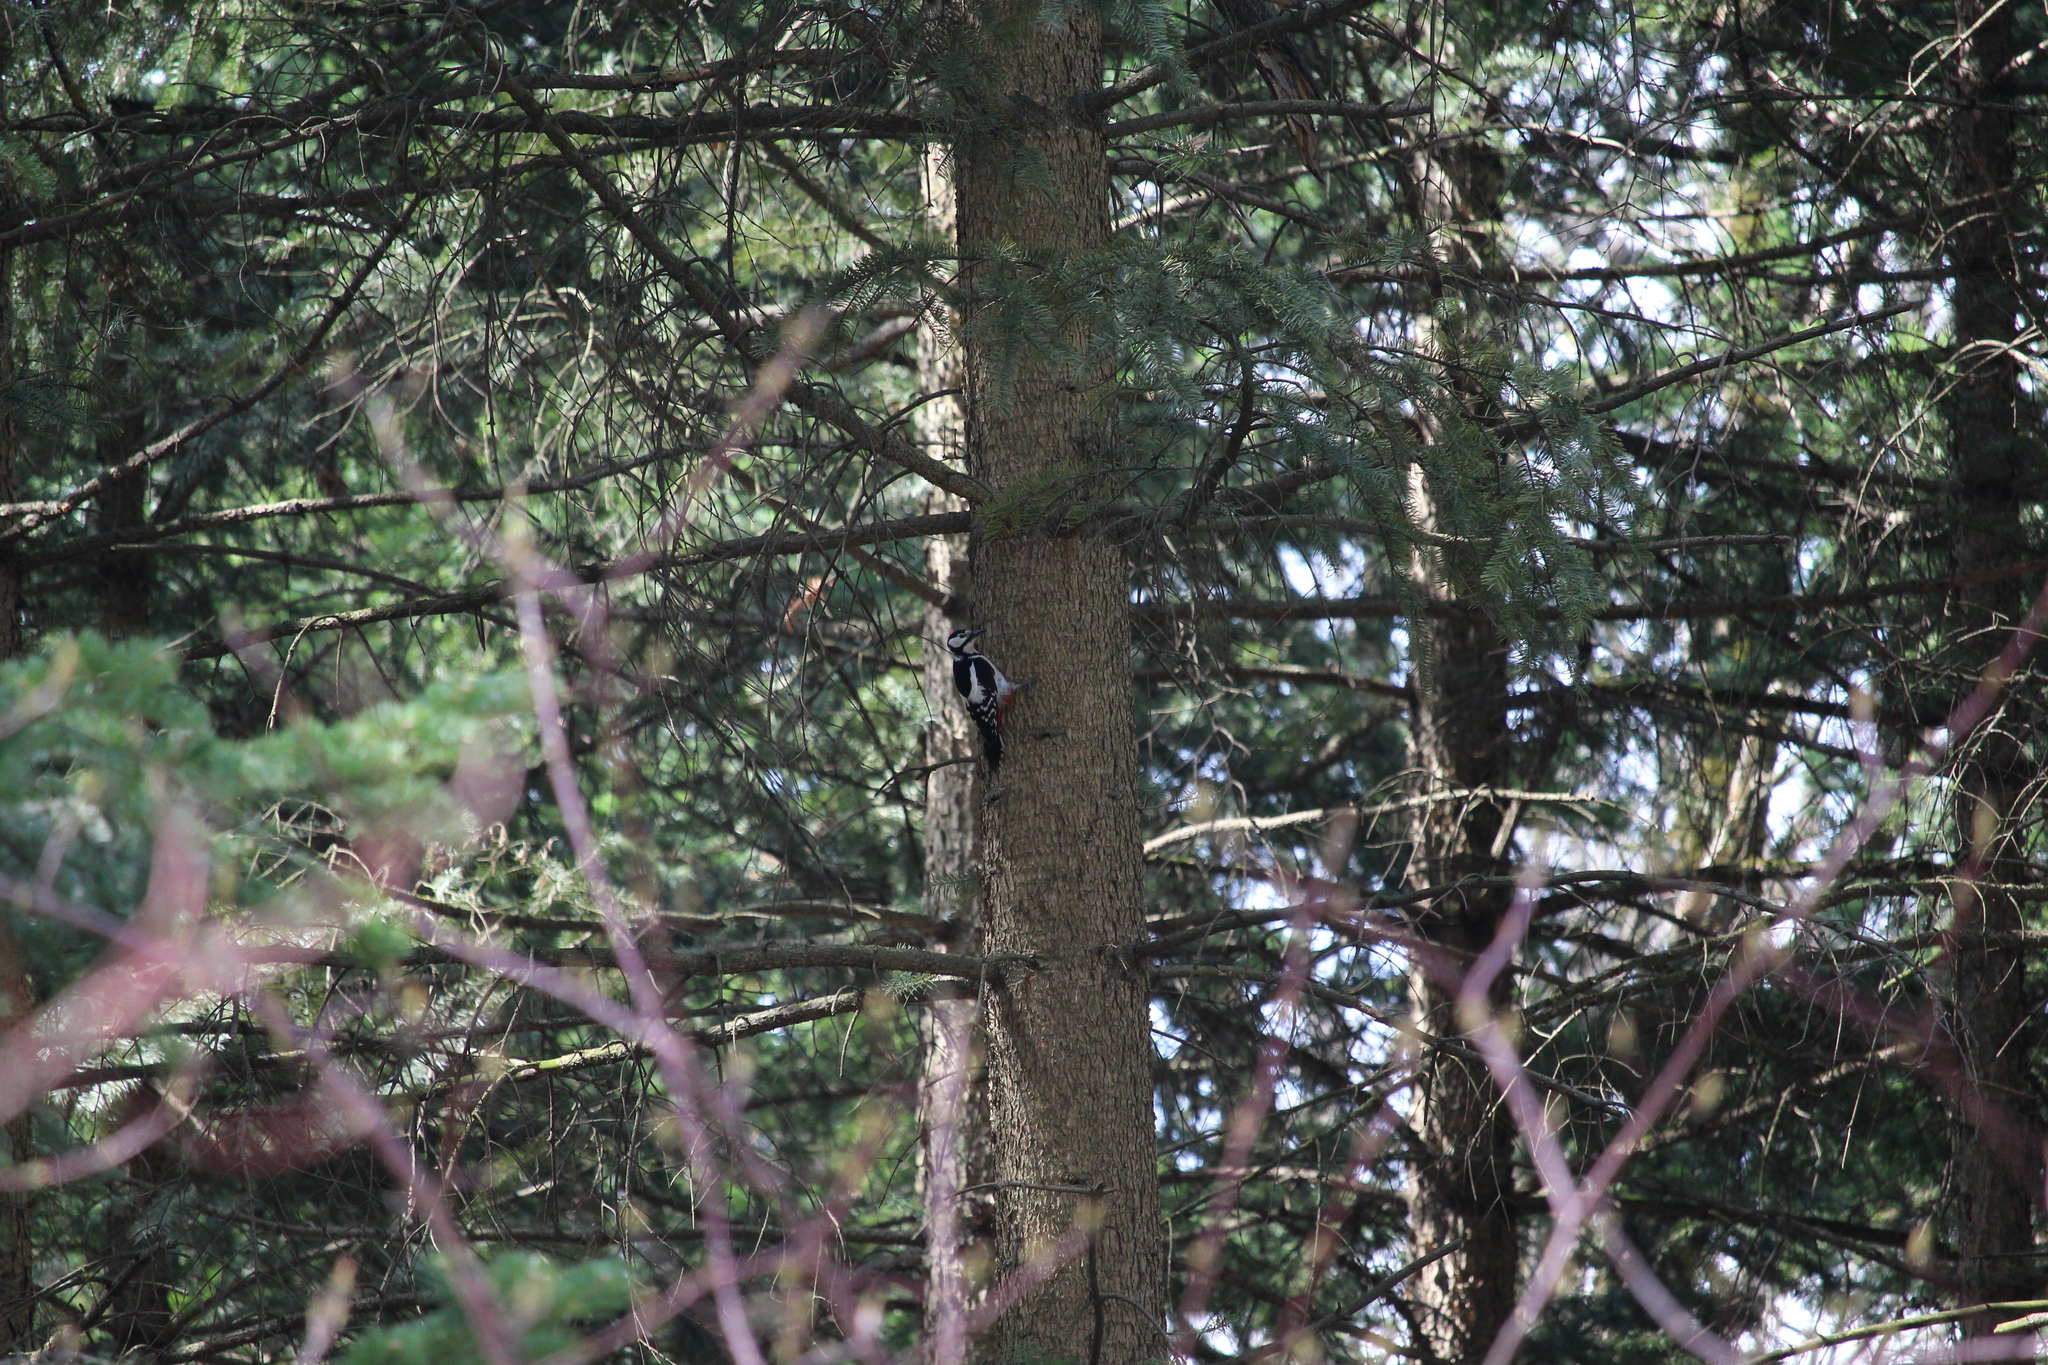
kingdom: Animalia
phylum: Chordata
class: Aves
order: Piciformes
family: Picidae
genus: Dendrocopos
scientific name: Dendrocopos major
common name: Great spotted woodpecker
